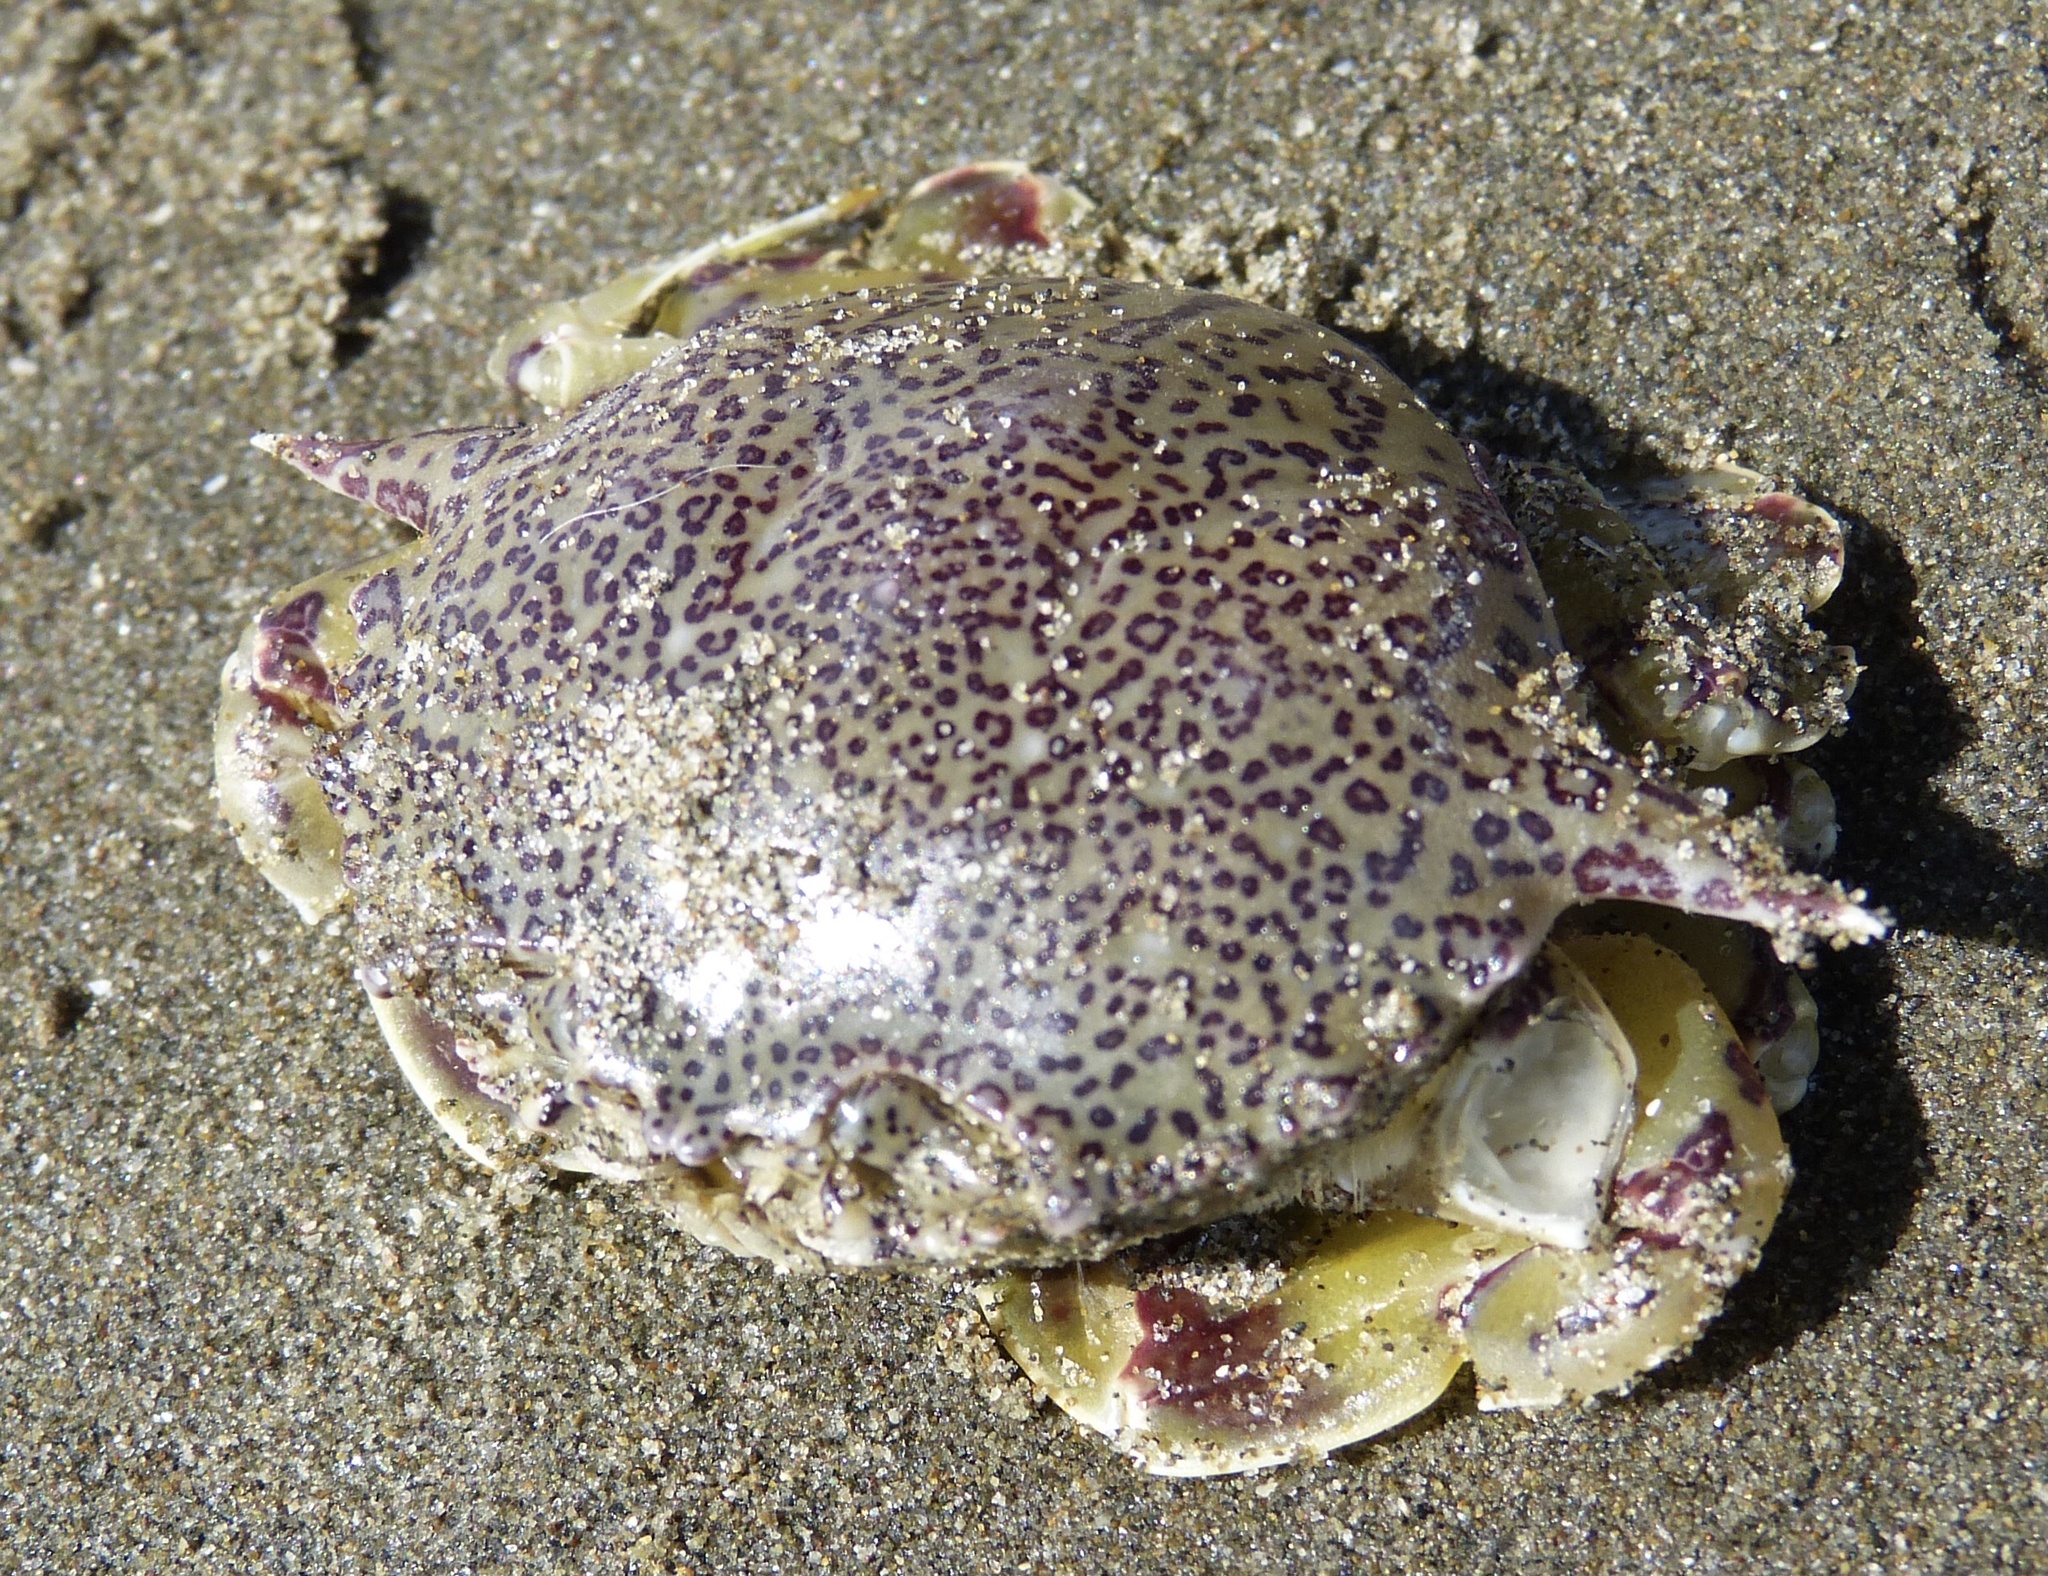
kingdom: Animalia
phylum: Arthropoda
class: Malacostraca
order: Decapoda
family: Matutidae
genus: Matuta
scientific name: Matuta victor
